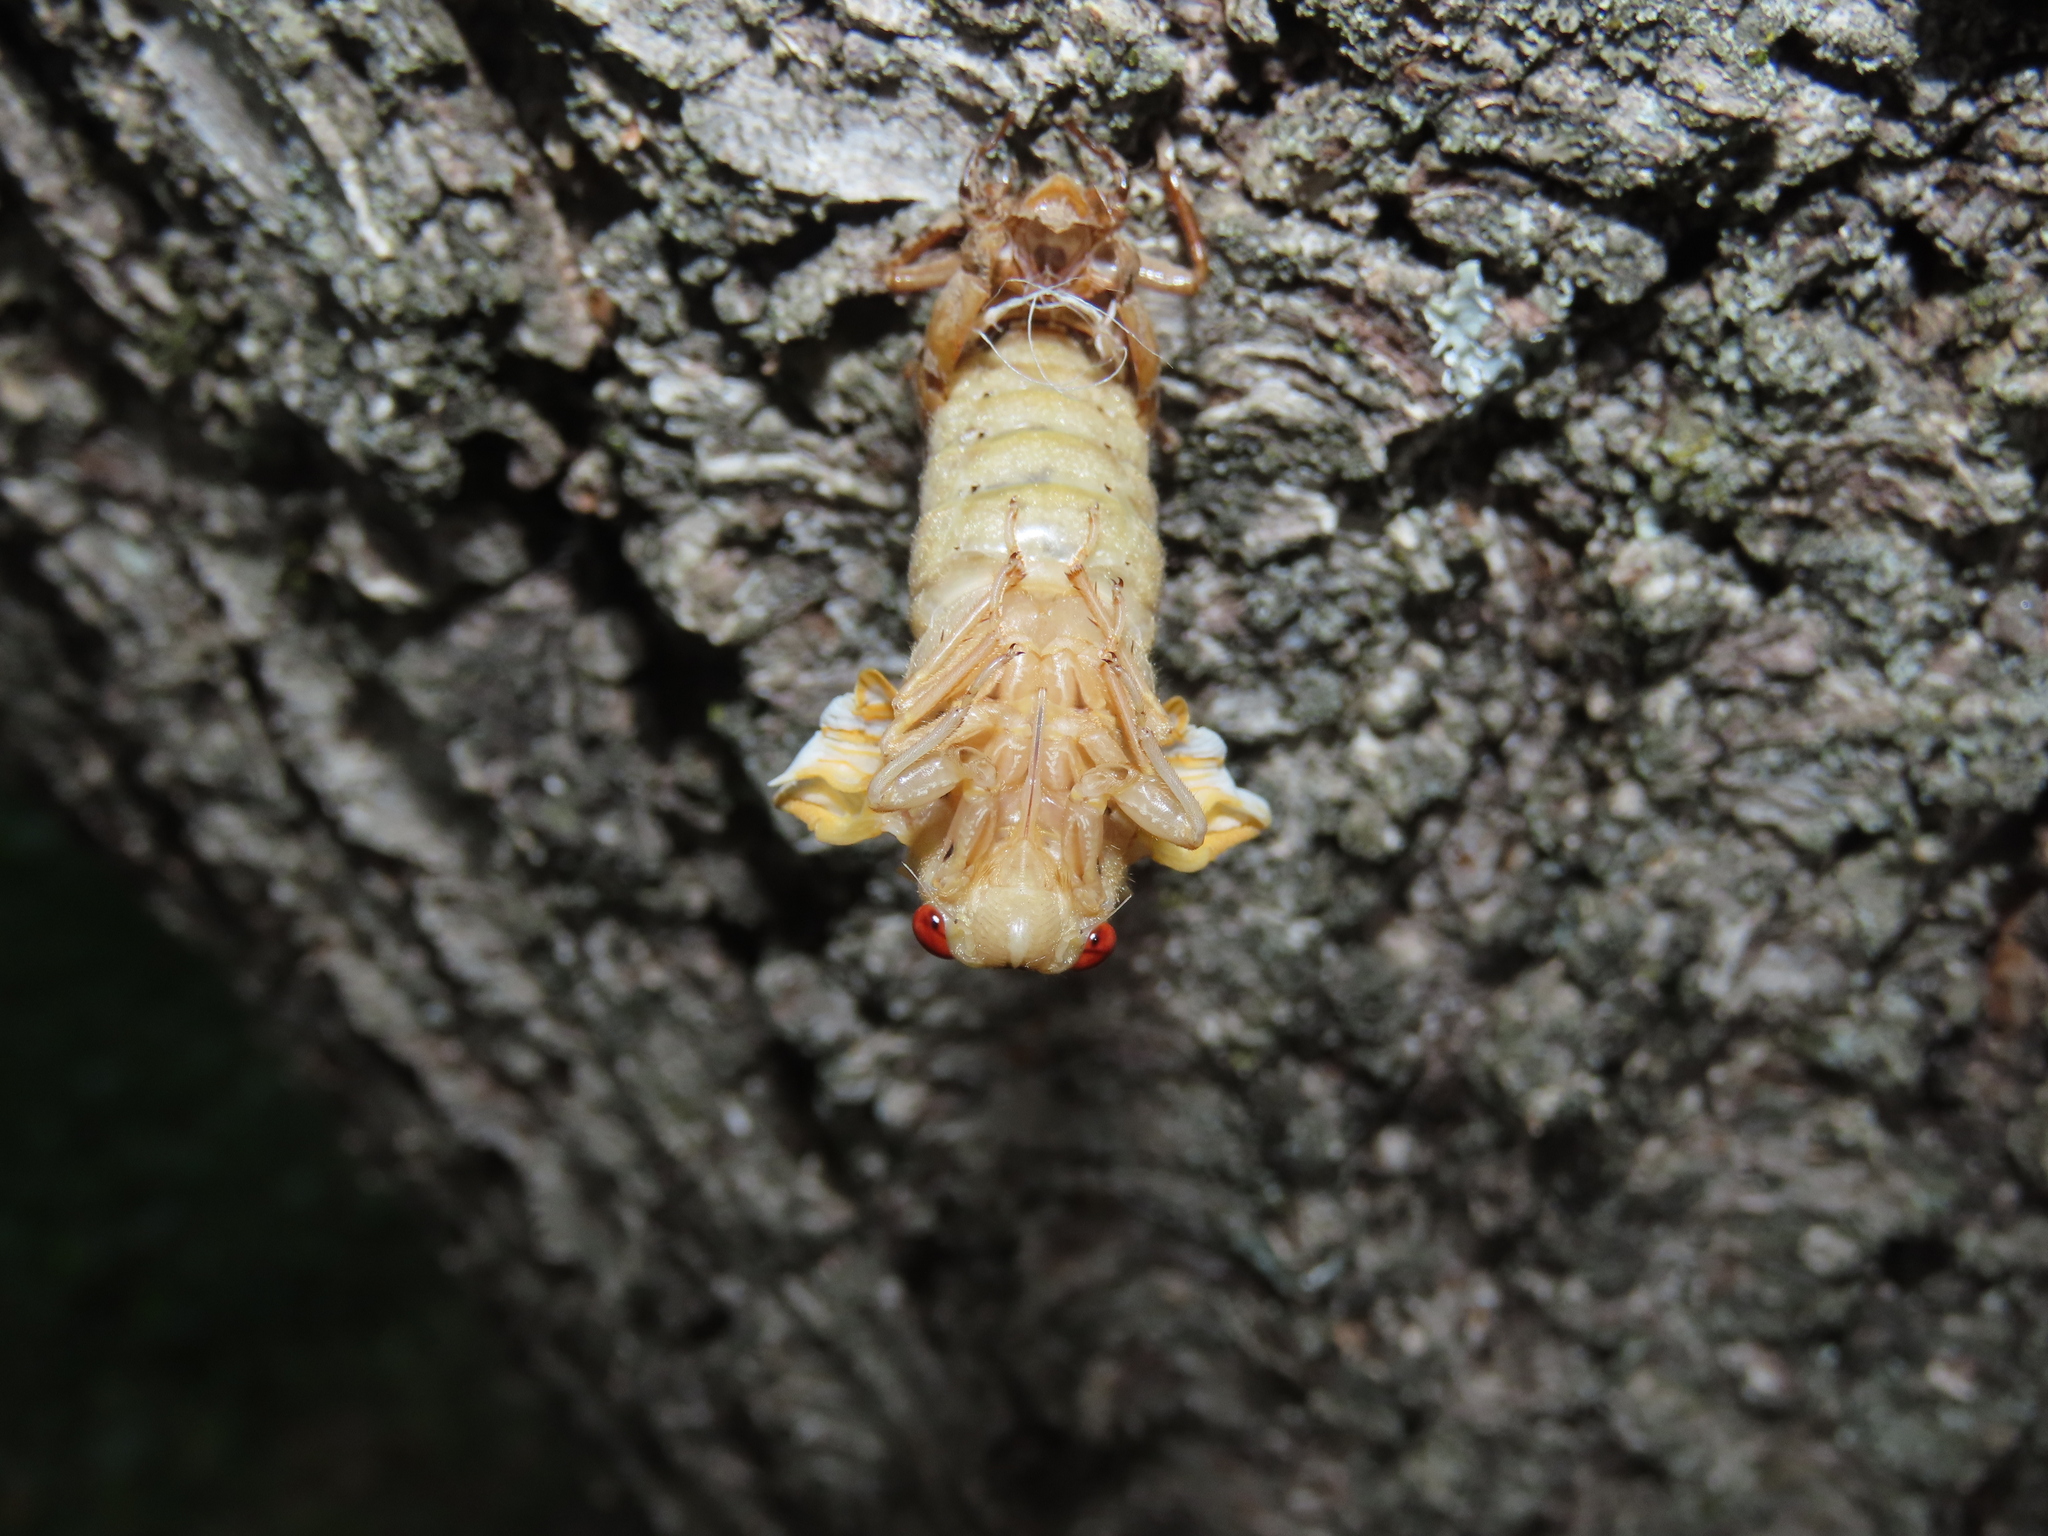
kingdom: Animalia
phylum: Arthropoda
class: Insecta
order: Hemiptera
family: Cicadidae
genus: Magicicada
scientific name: Magicicada
